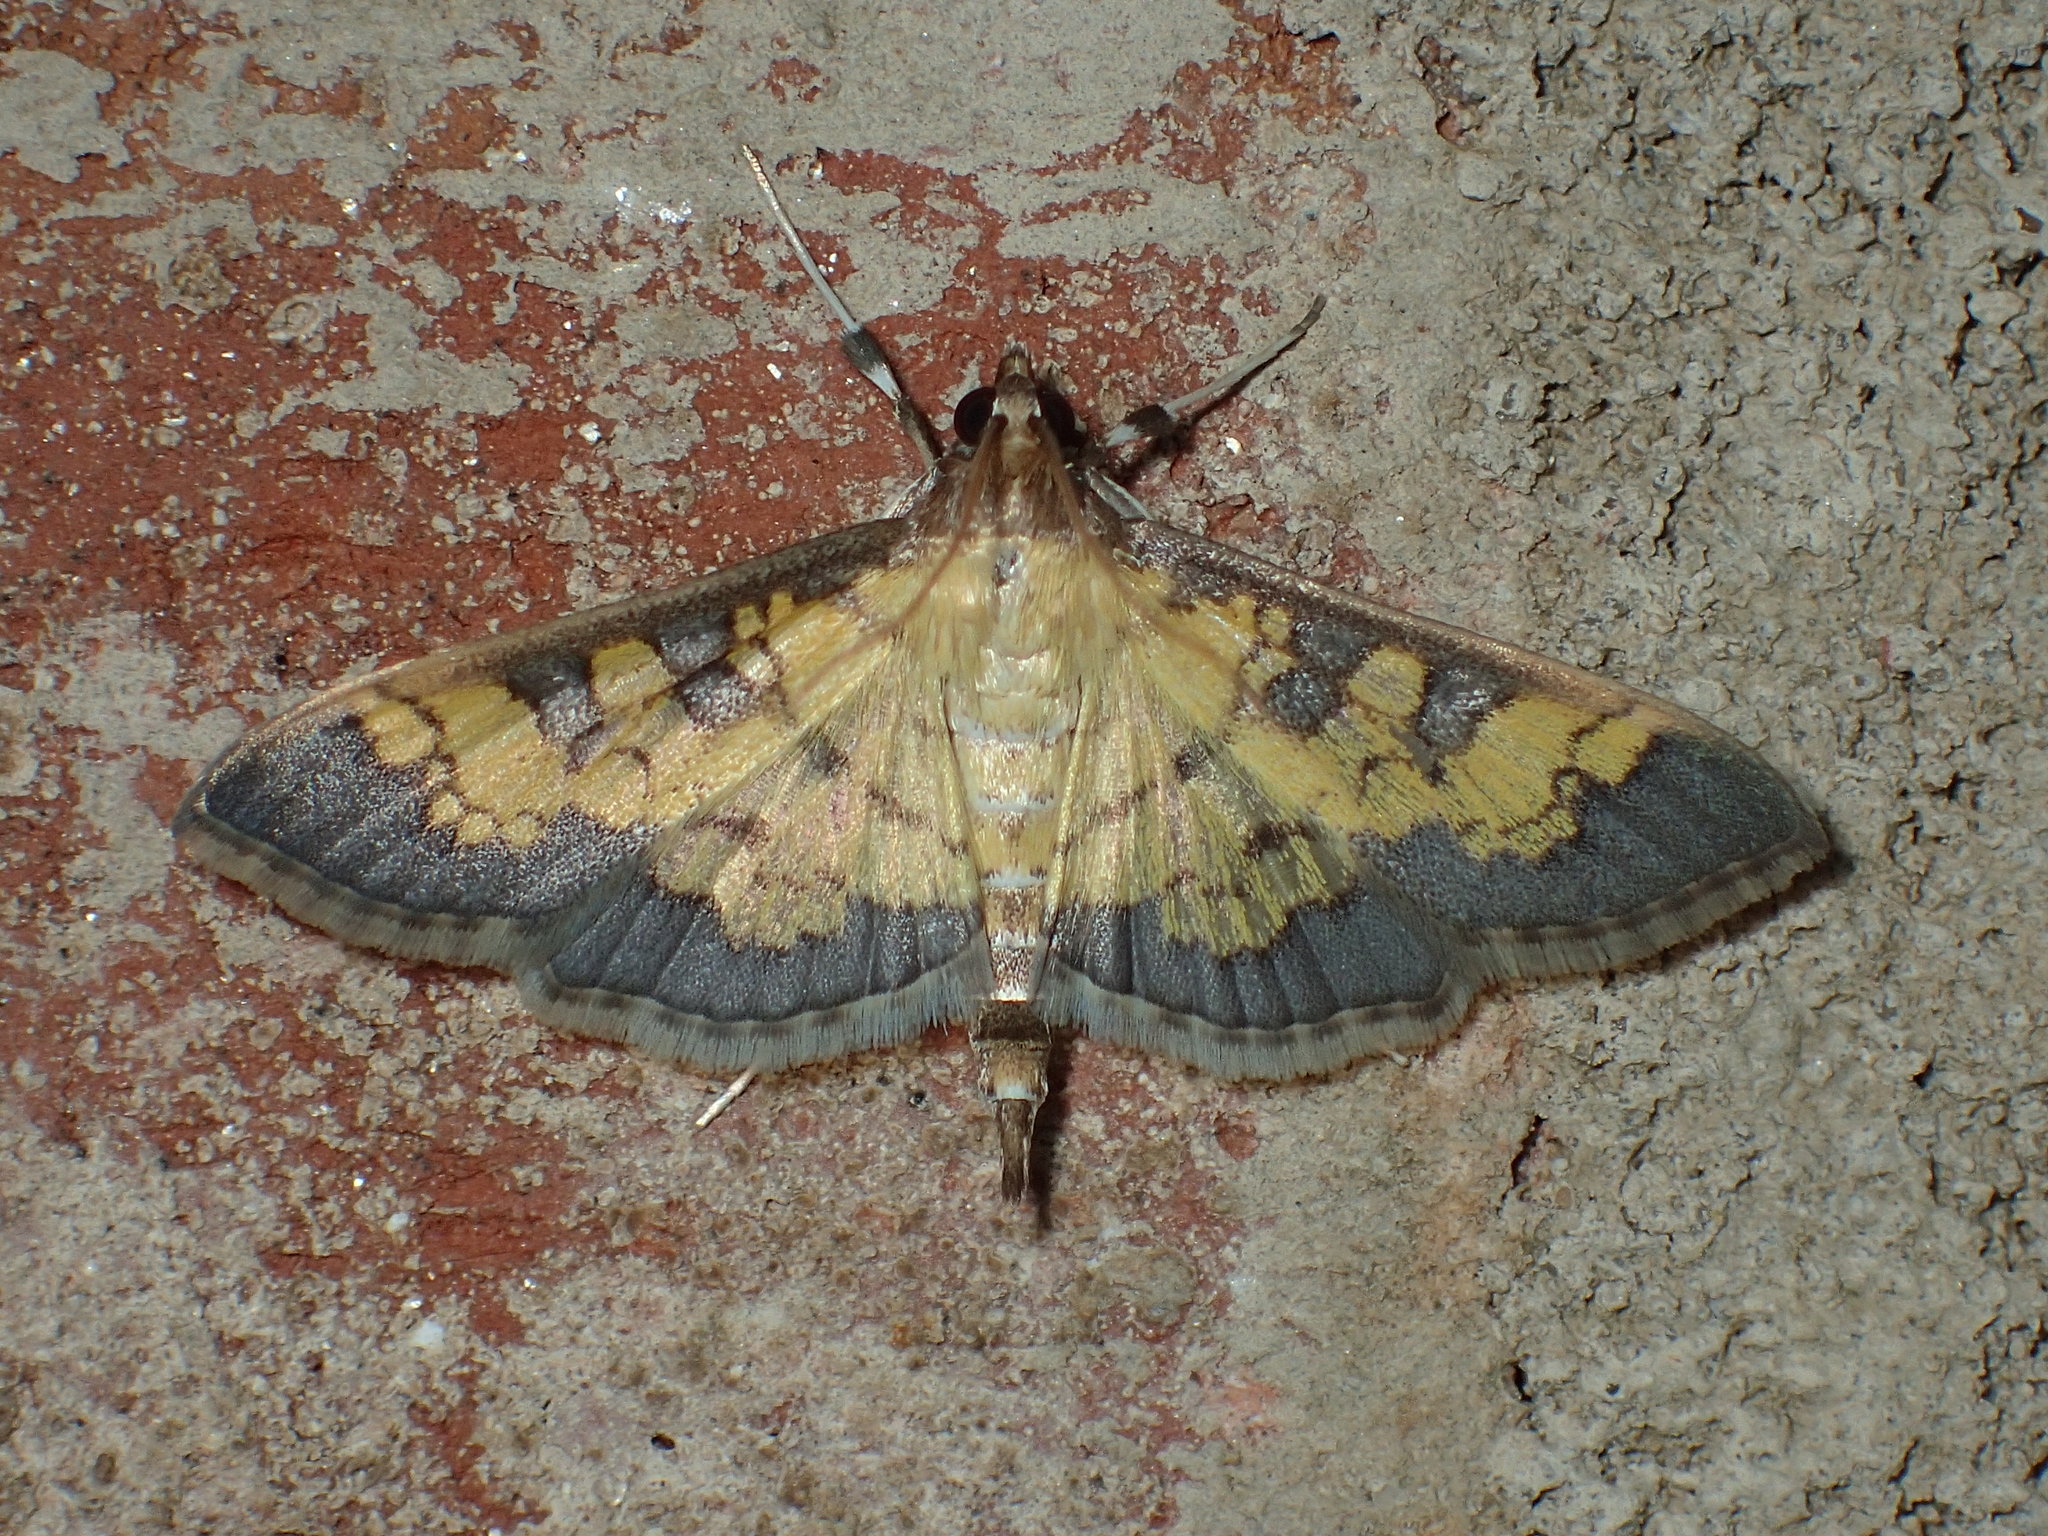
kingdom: Animalia
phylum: Arthropoda
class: Insecta
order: Lepidoptera
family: Crambidae
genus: Epipagis
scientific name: Epipagis adipaloides
